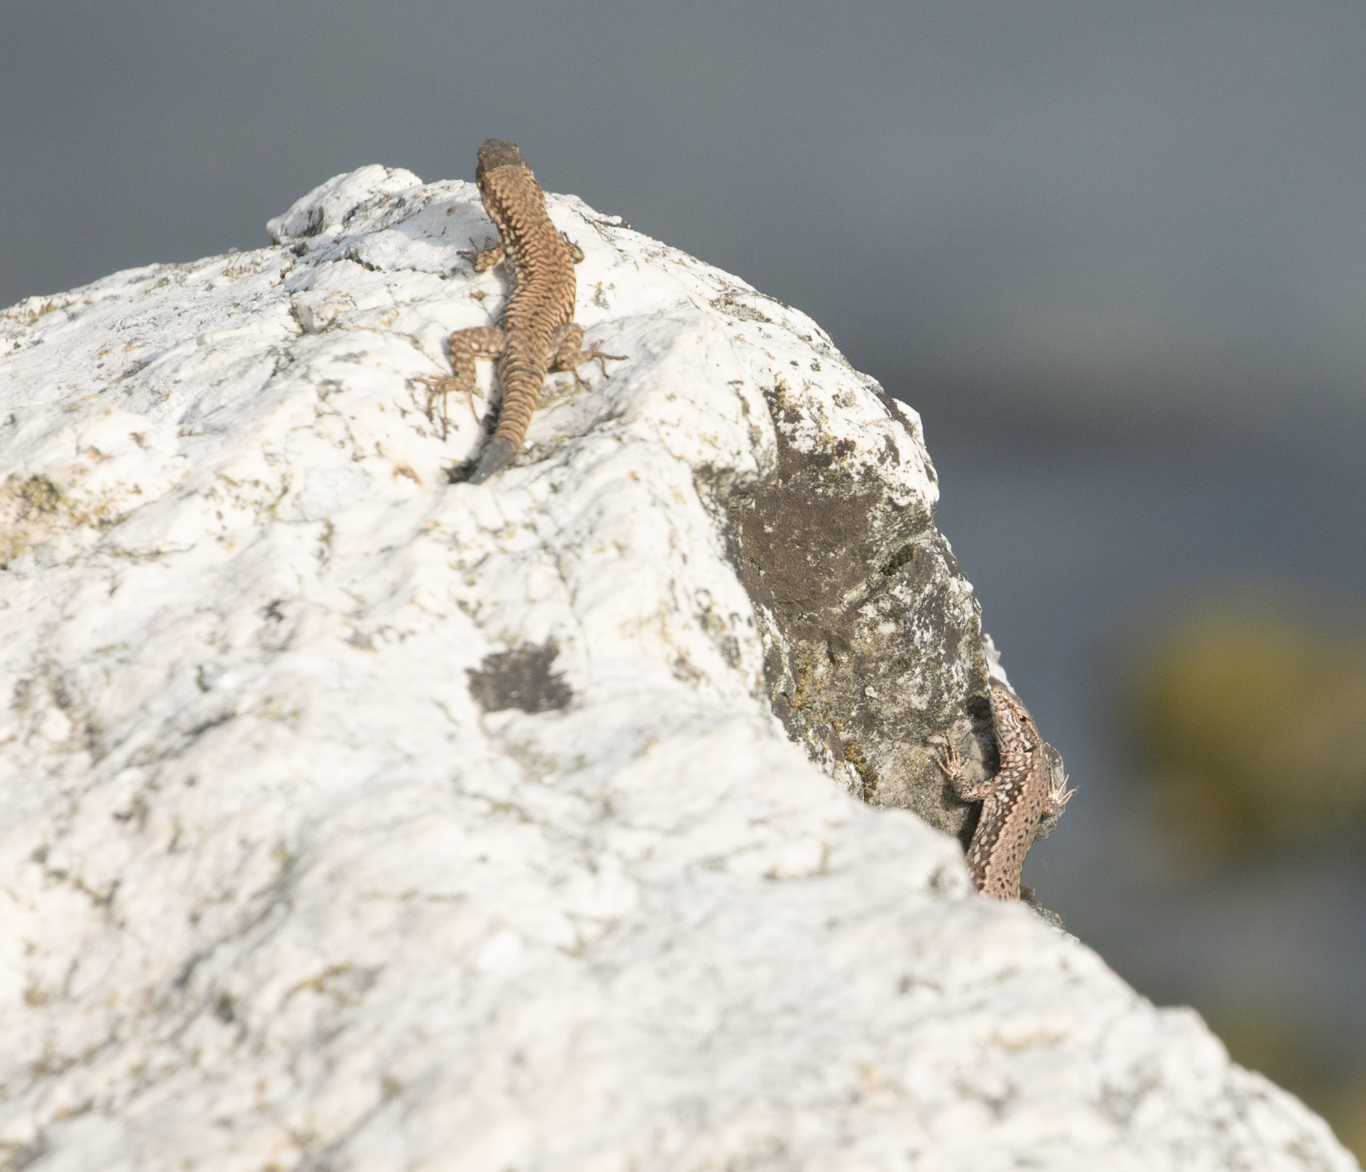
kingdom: Animalia
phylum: Chordata
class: Squamata
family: Lacertidae
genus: Podarcis
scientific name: Podarcis muralis
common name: Common wall lizard
